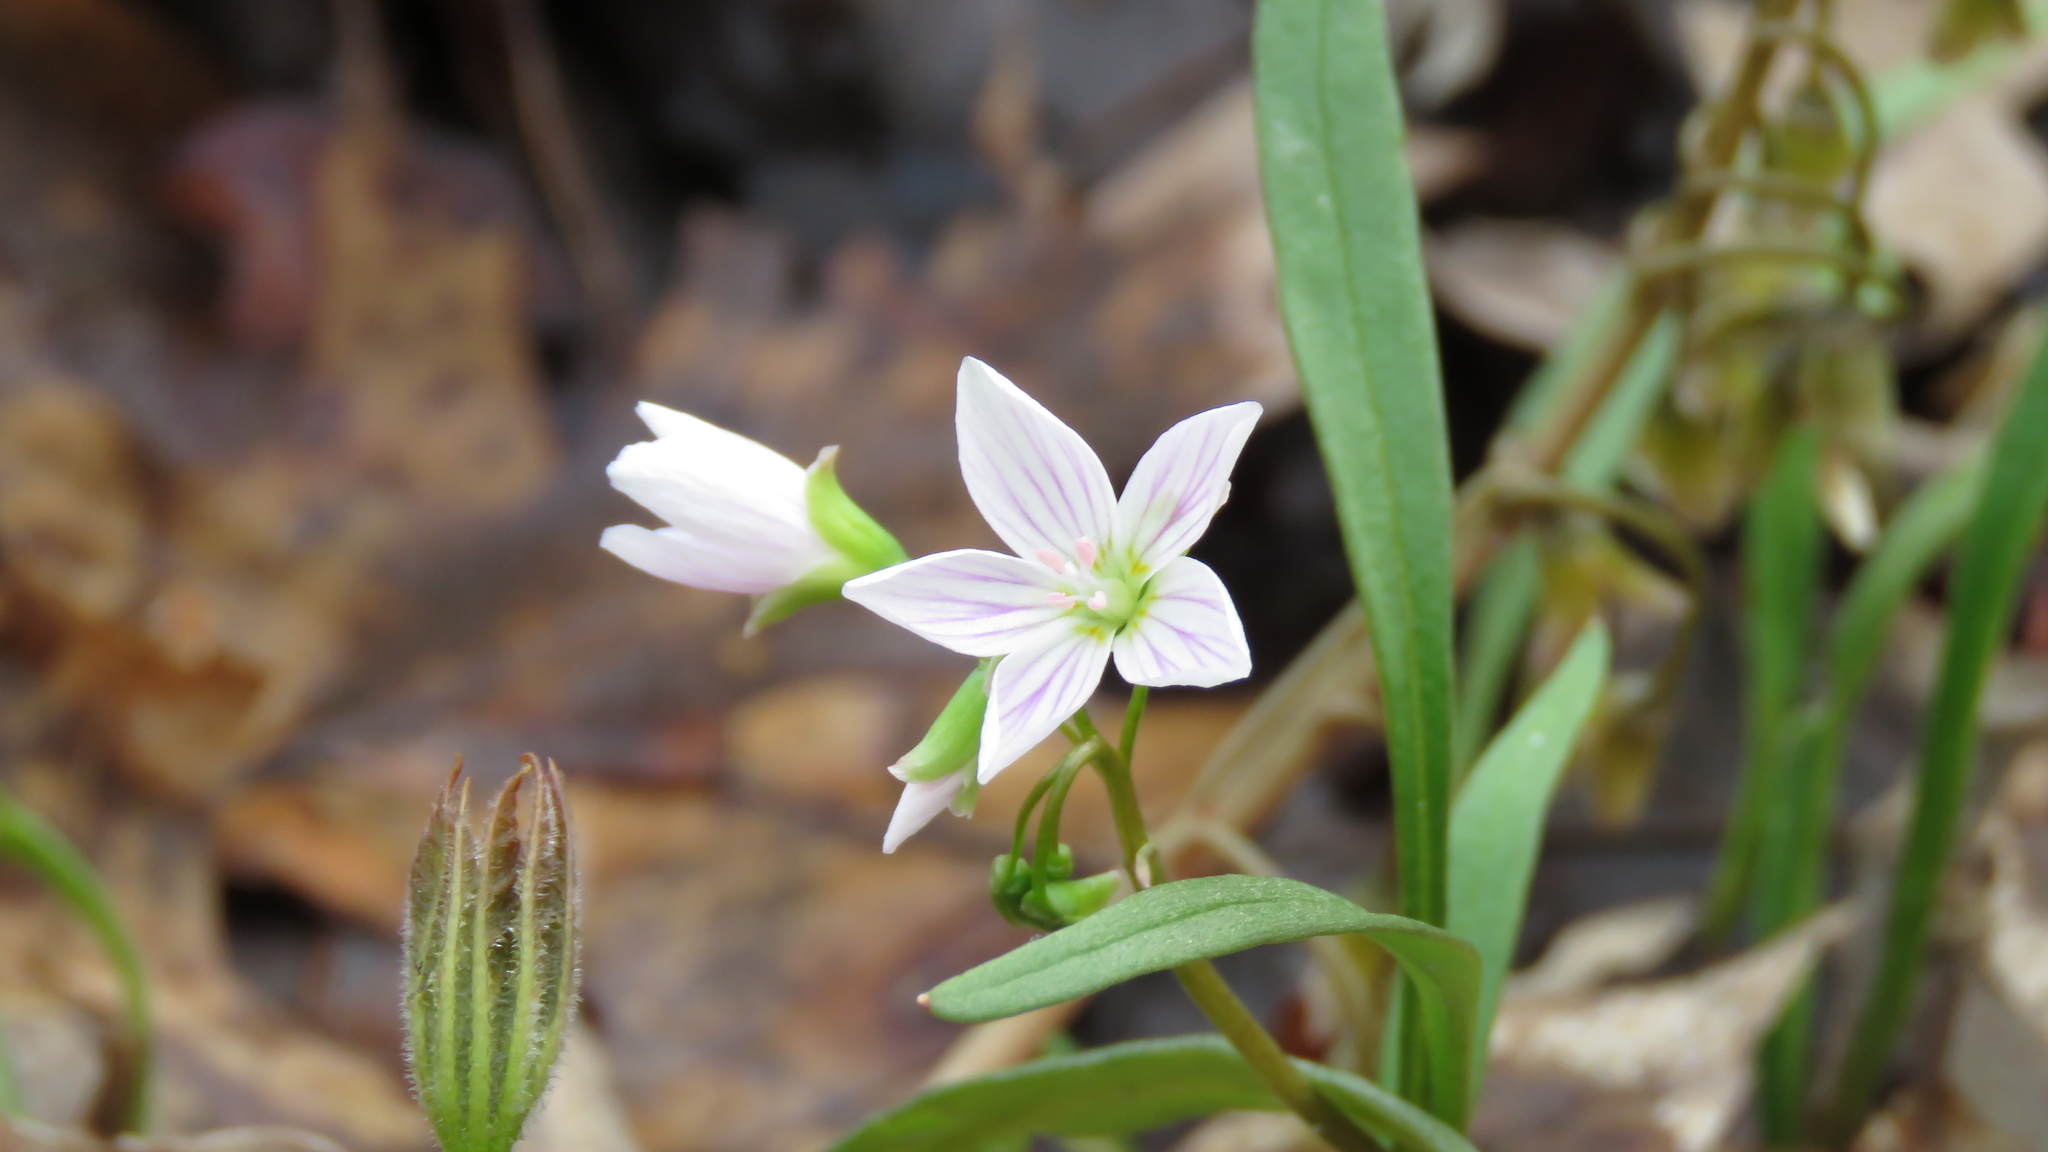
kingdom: Plantae
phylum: Tracheophyta
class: Magnoliopsida
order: Caryophyllales
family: Montiaceae
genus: Claytonia
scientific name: Claytonia virginica
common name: Virginia springbeauty
